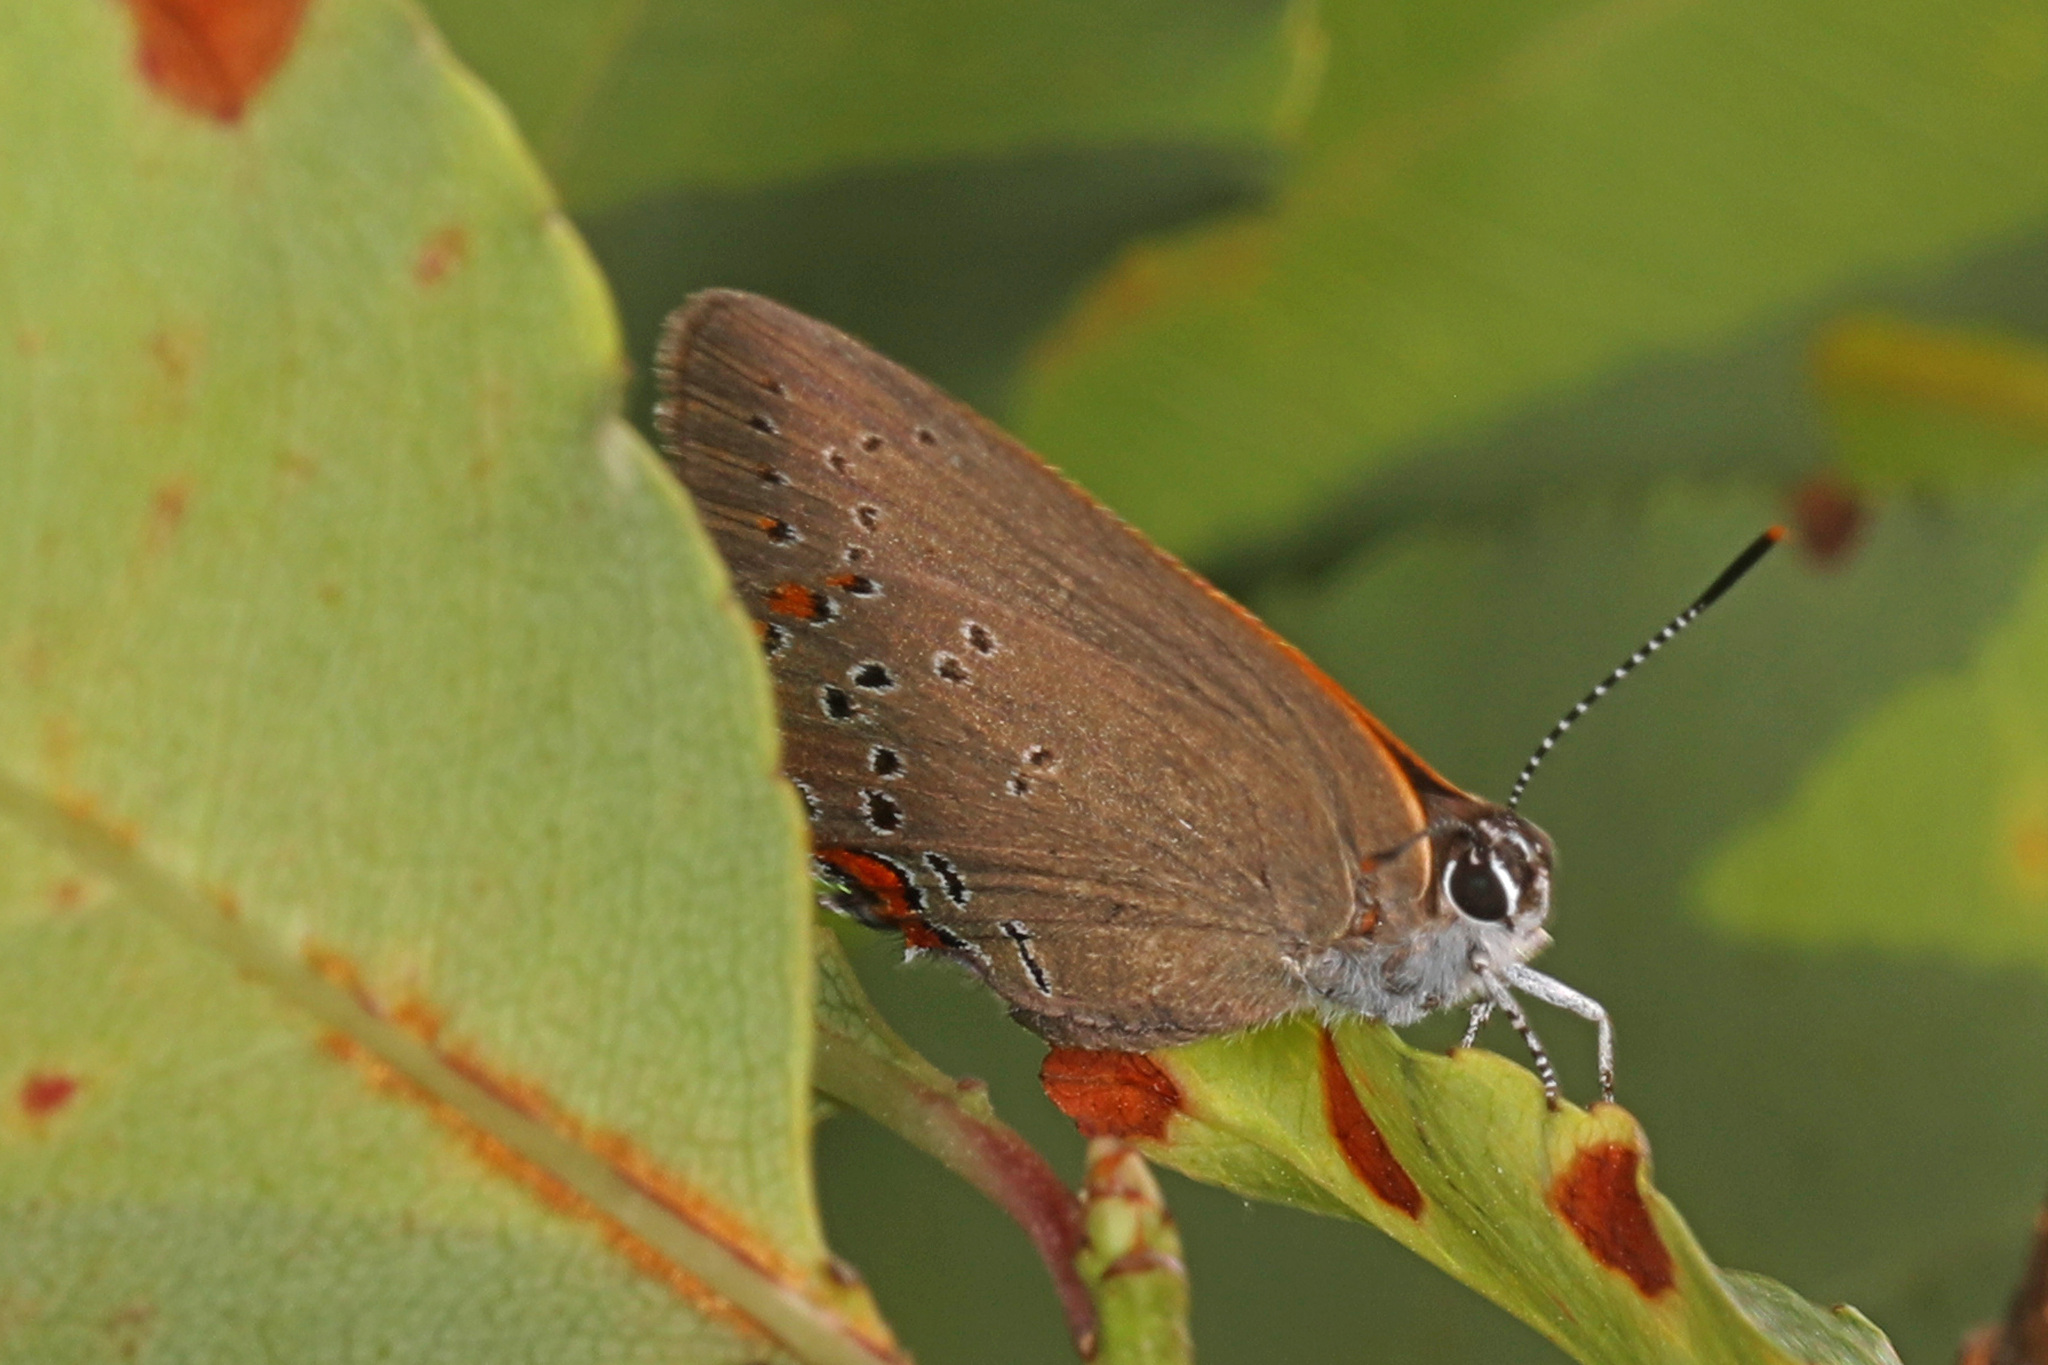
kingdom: Animalia
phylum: Arthropoda
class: Insecta
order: Lepidoptera
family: Lycaenidae
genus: Harkenclenus
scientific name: Harkenclenus titus
